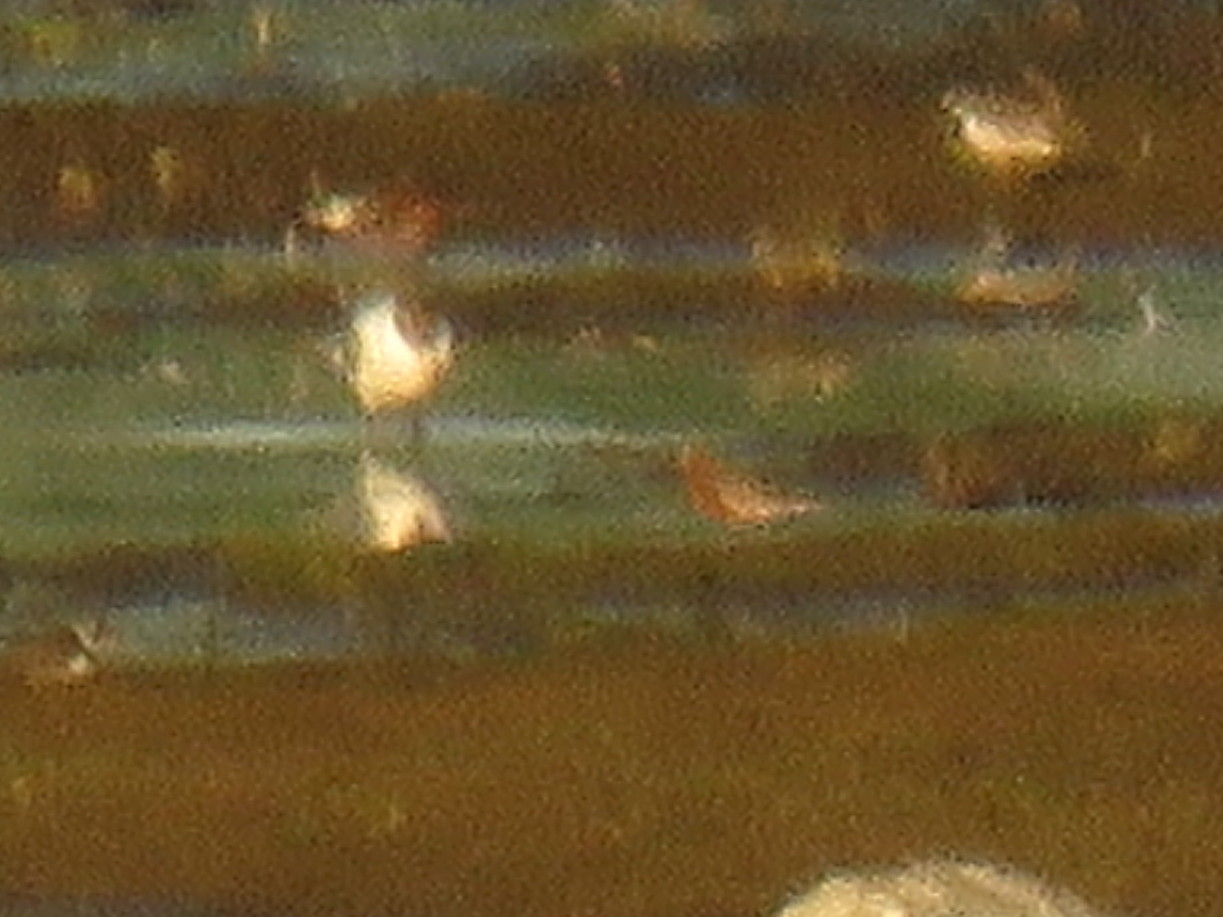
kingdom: Animalia
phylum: Chordata
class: Aves
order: Charadriiformes
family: Scolopacidae
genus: Calidris
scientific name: Calidris ferruginea
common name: Curlew sandpiper
